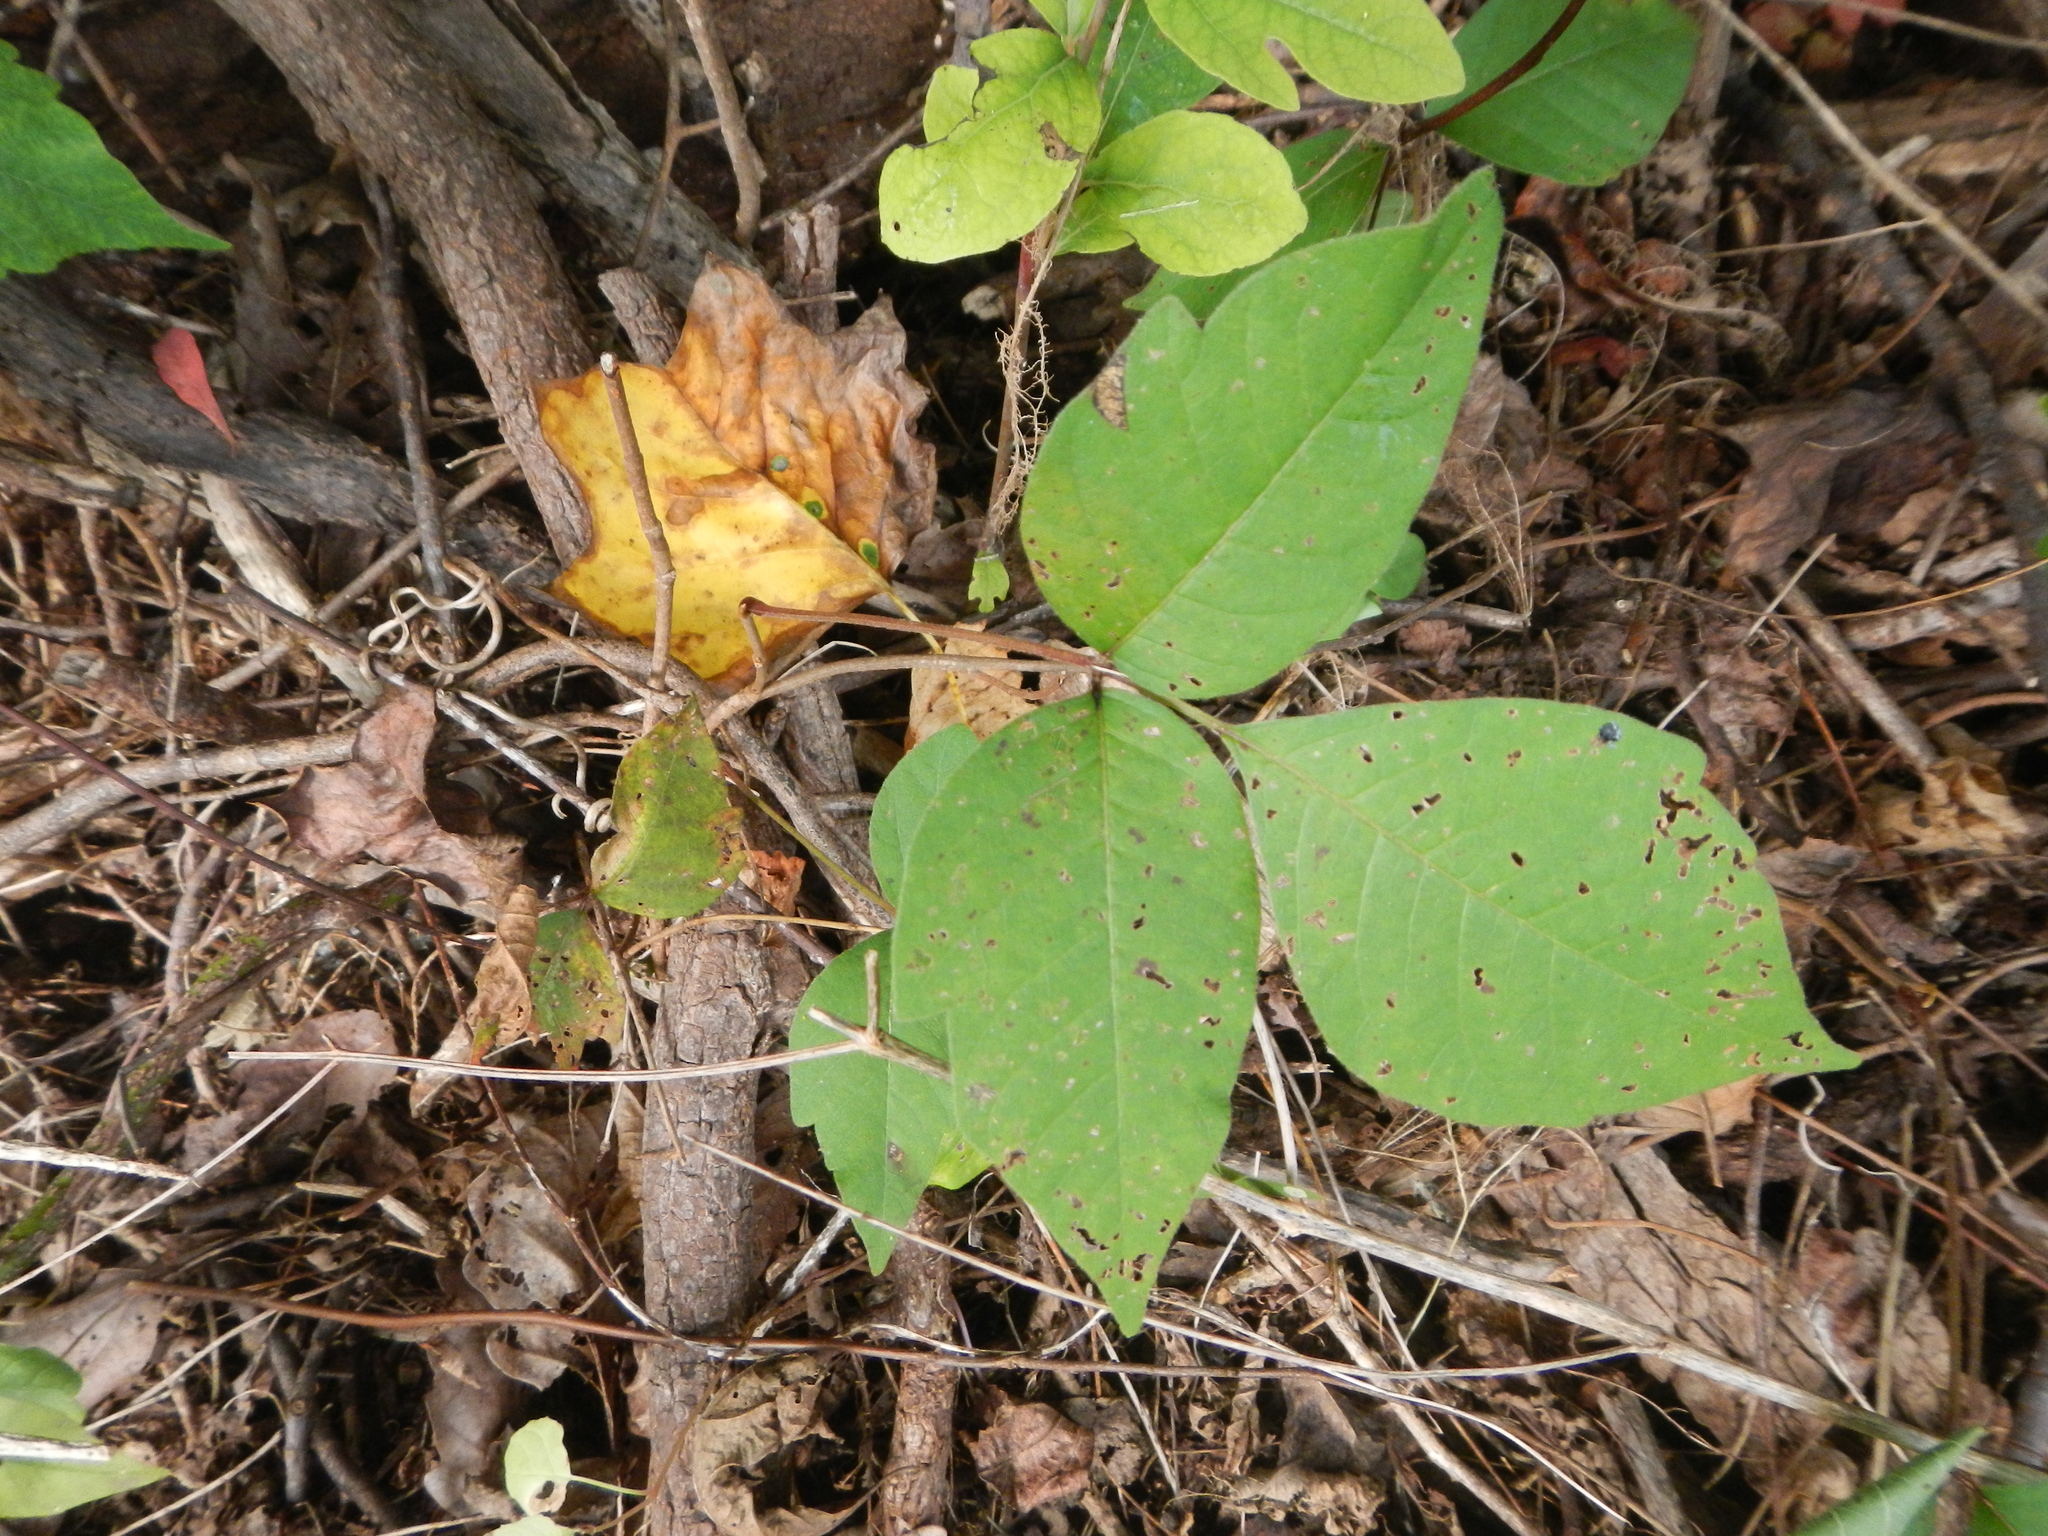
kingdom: Plantae
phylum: Tracheophyta
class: Magnoliopsida
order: Sapindales
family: Anacardiaceae
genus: Toxicodendron
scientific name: Toxicodendron radicans
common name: Poison ivy
